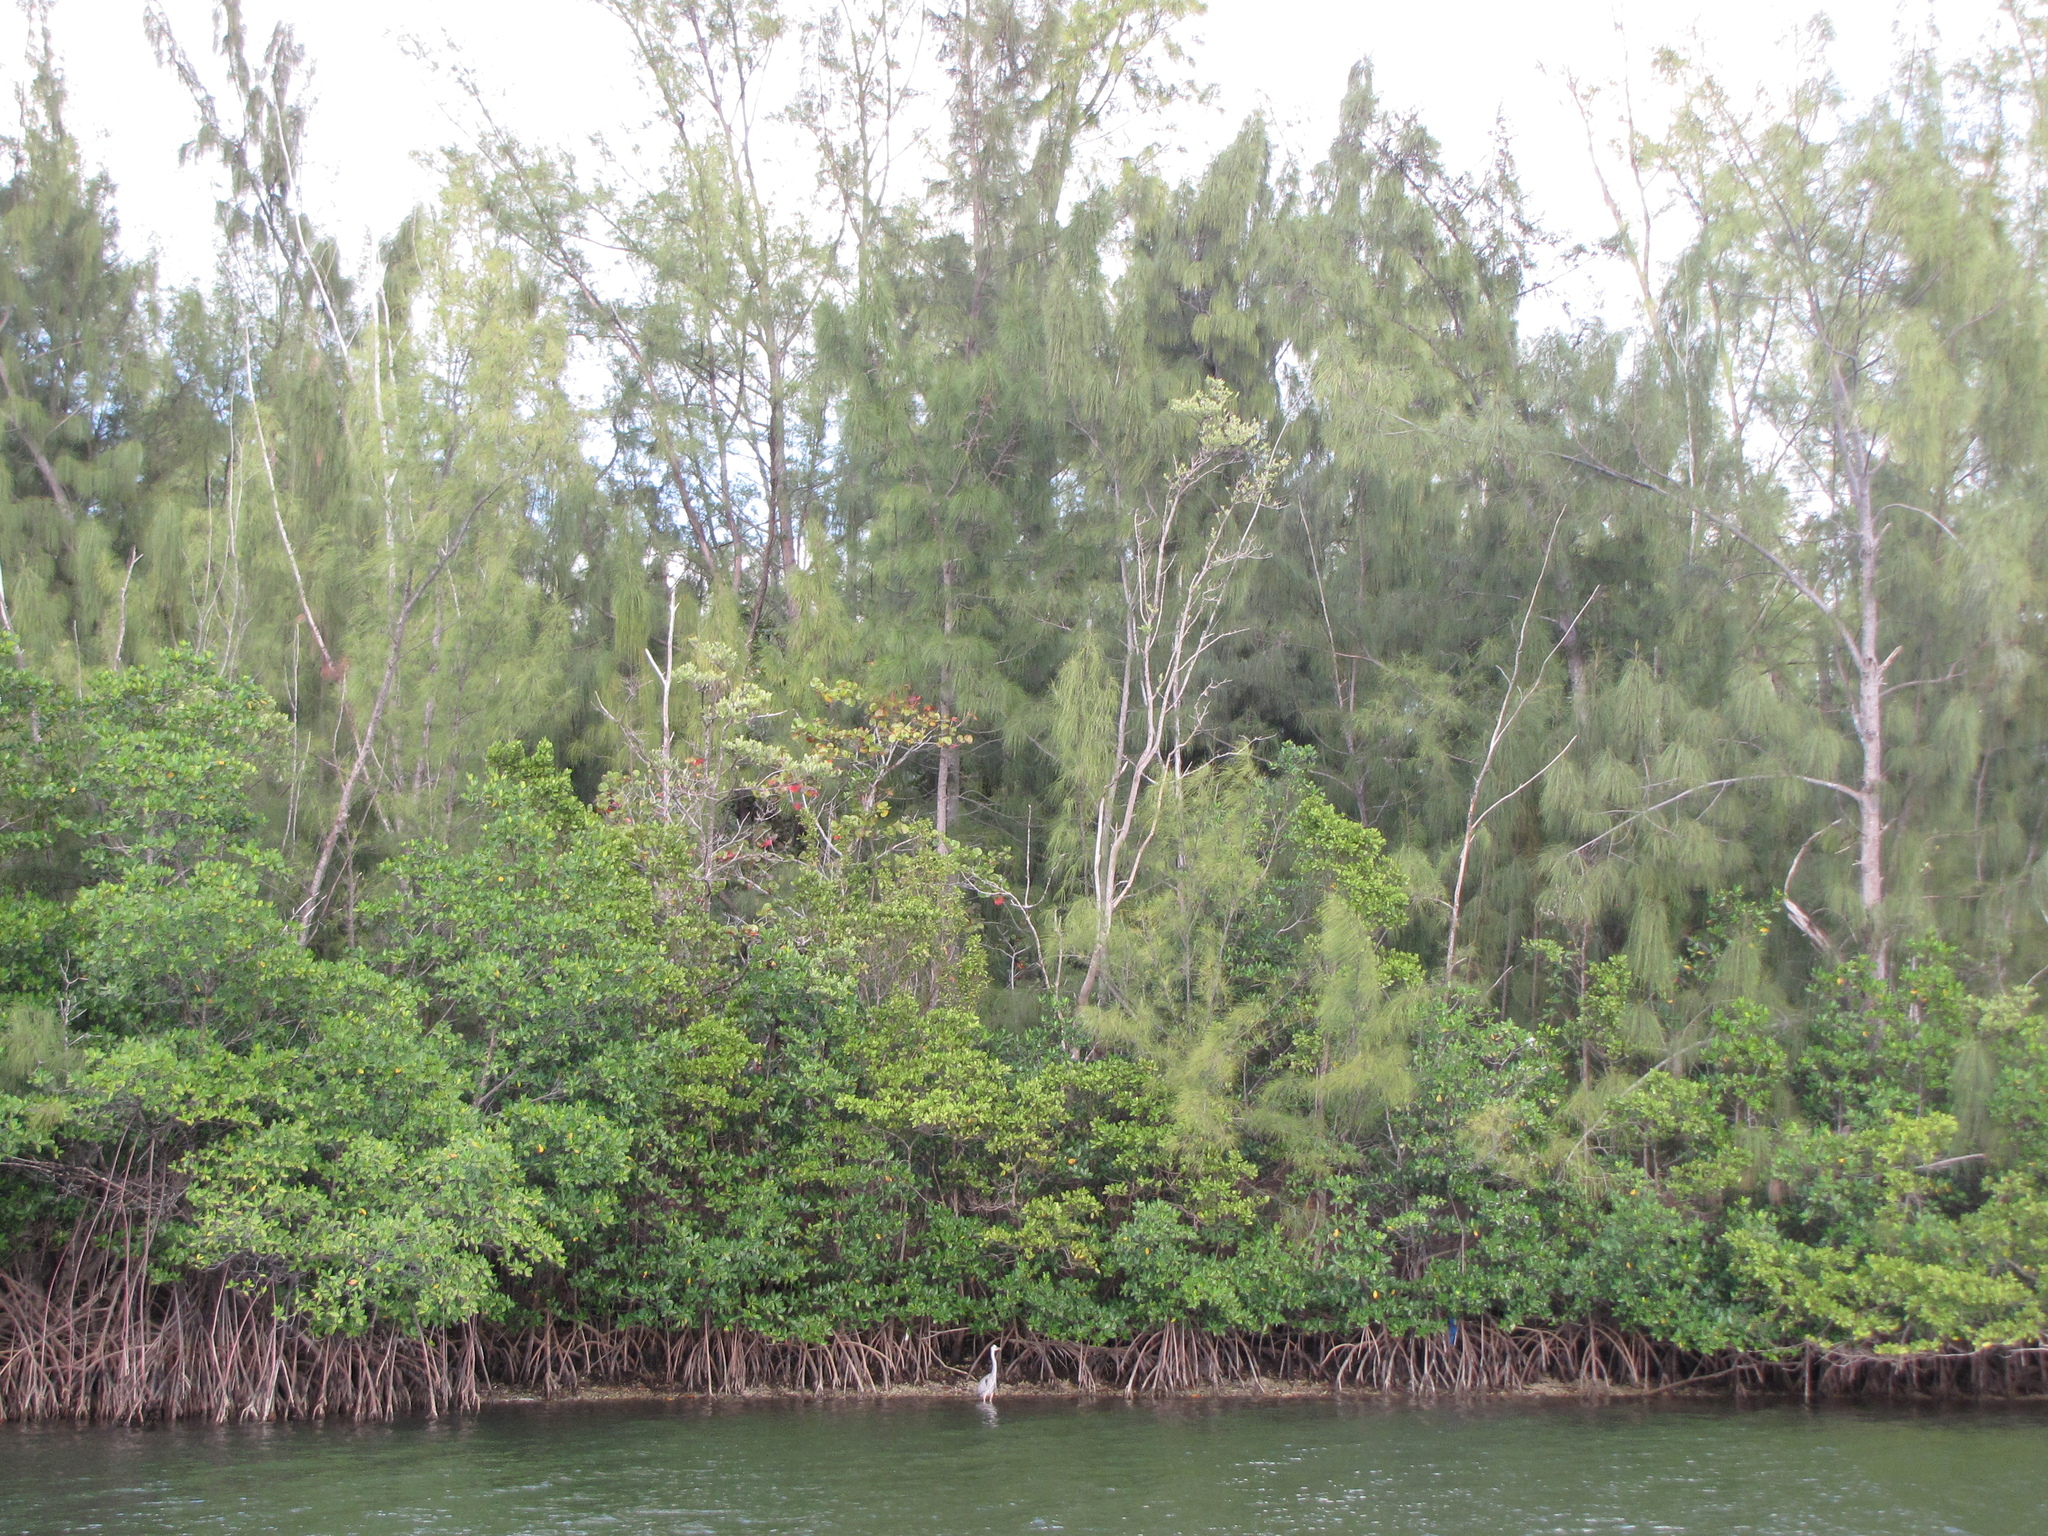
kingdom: Plantae
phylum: Tracheophyta
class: Magnoliopsida
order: Fagales
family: Casuarinaceae
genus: Casuarina
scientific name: Casuarina equisetifolia
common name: Beach sheoak
